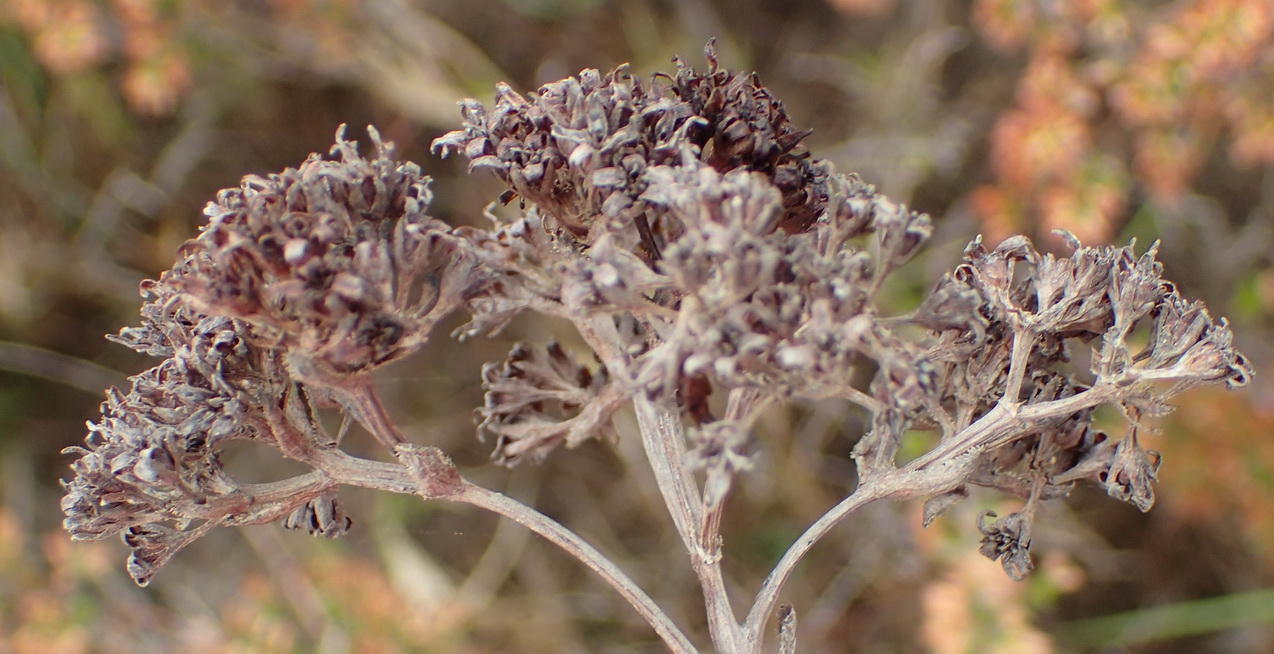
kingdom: Plantae
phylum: Tracheophyta
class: Magnoliopsida
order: Saxifragales
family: Crassulaceae
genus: Crassula
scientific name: Crassula ciliata
